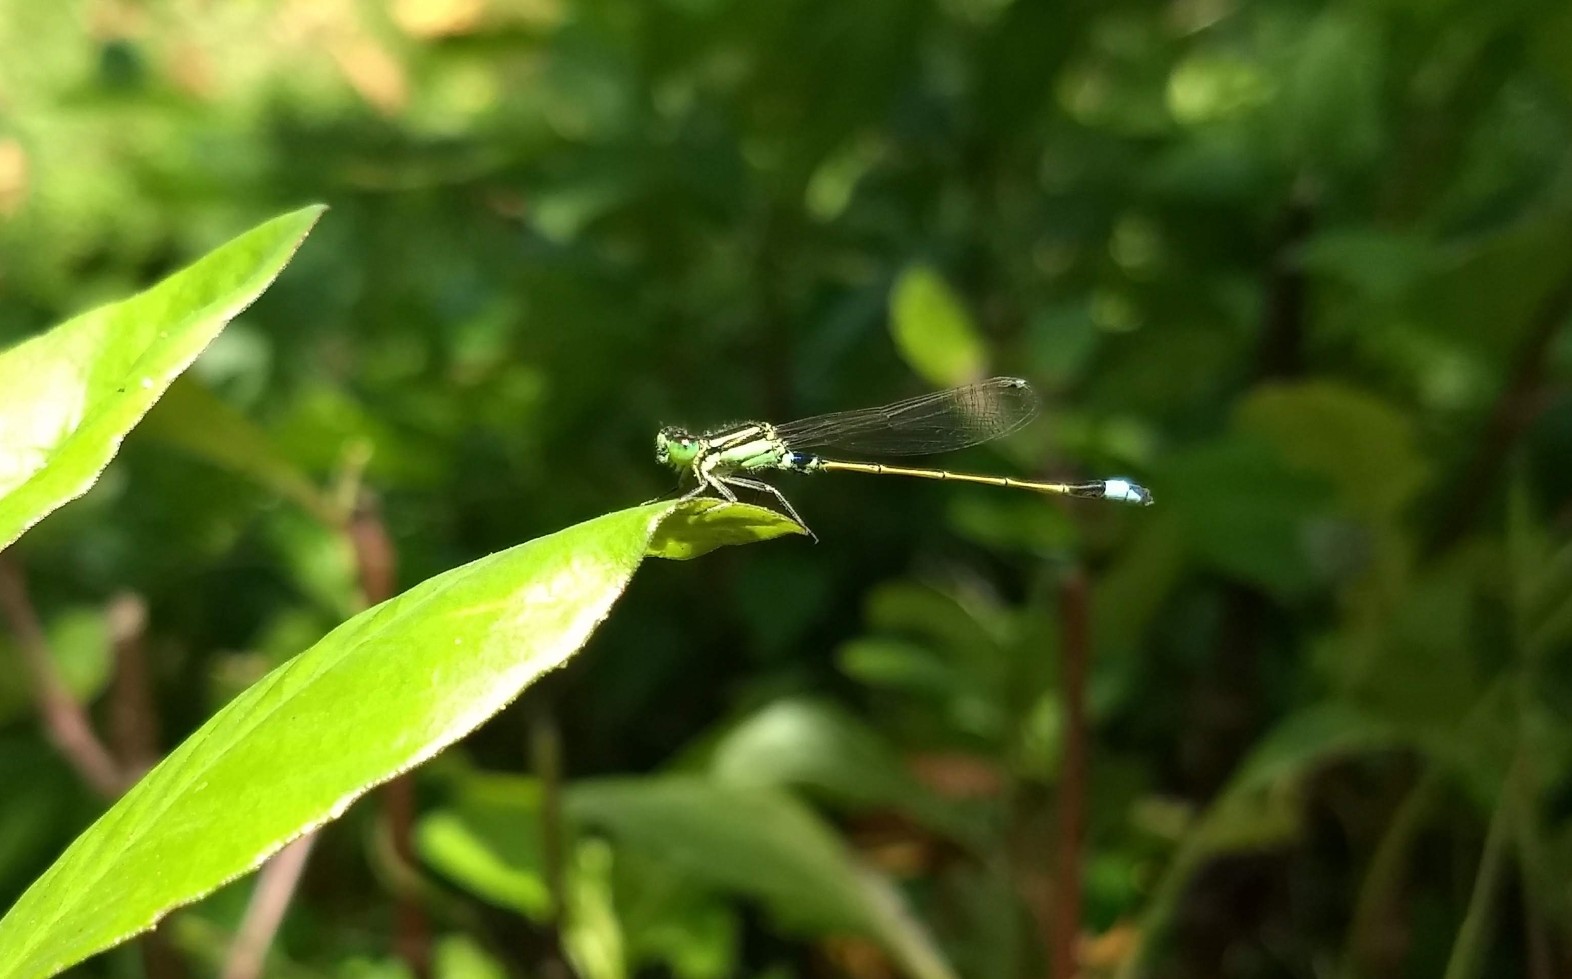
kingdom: Animalia
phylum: Arthropoda
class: Insecta
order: Odonata
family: Coenagrionidae
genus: Ischnura
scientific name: Ischnura senegalensis
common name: Tropical bluetail
